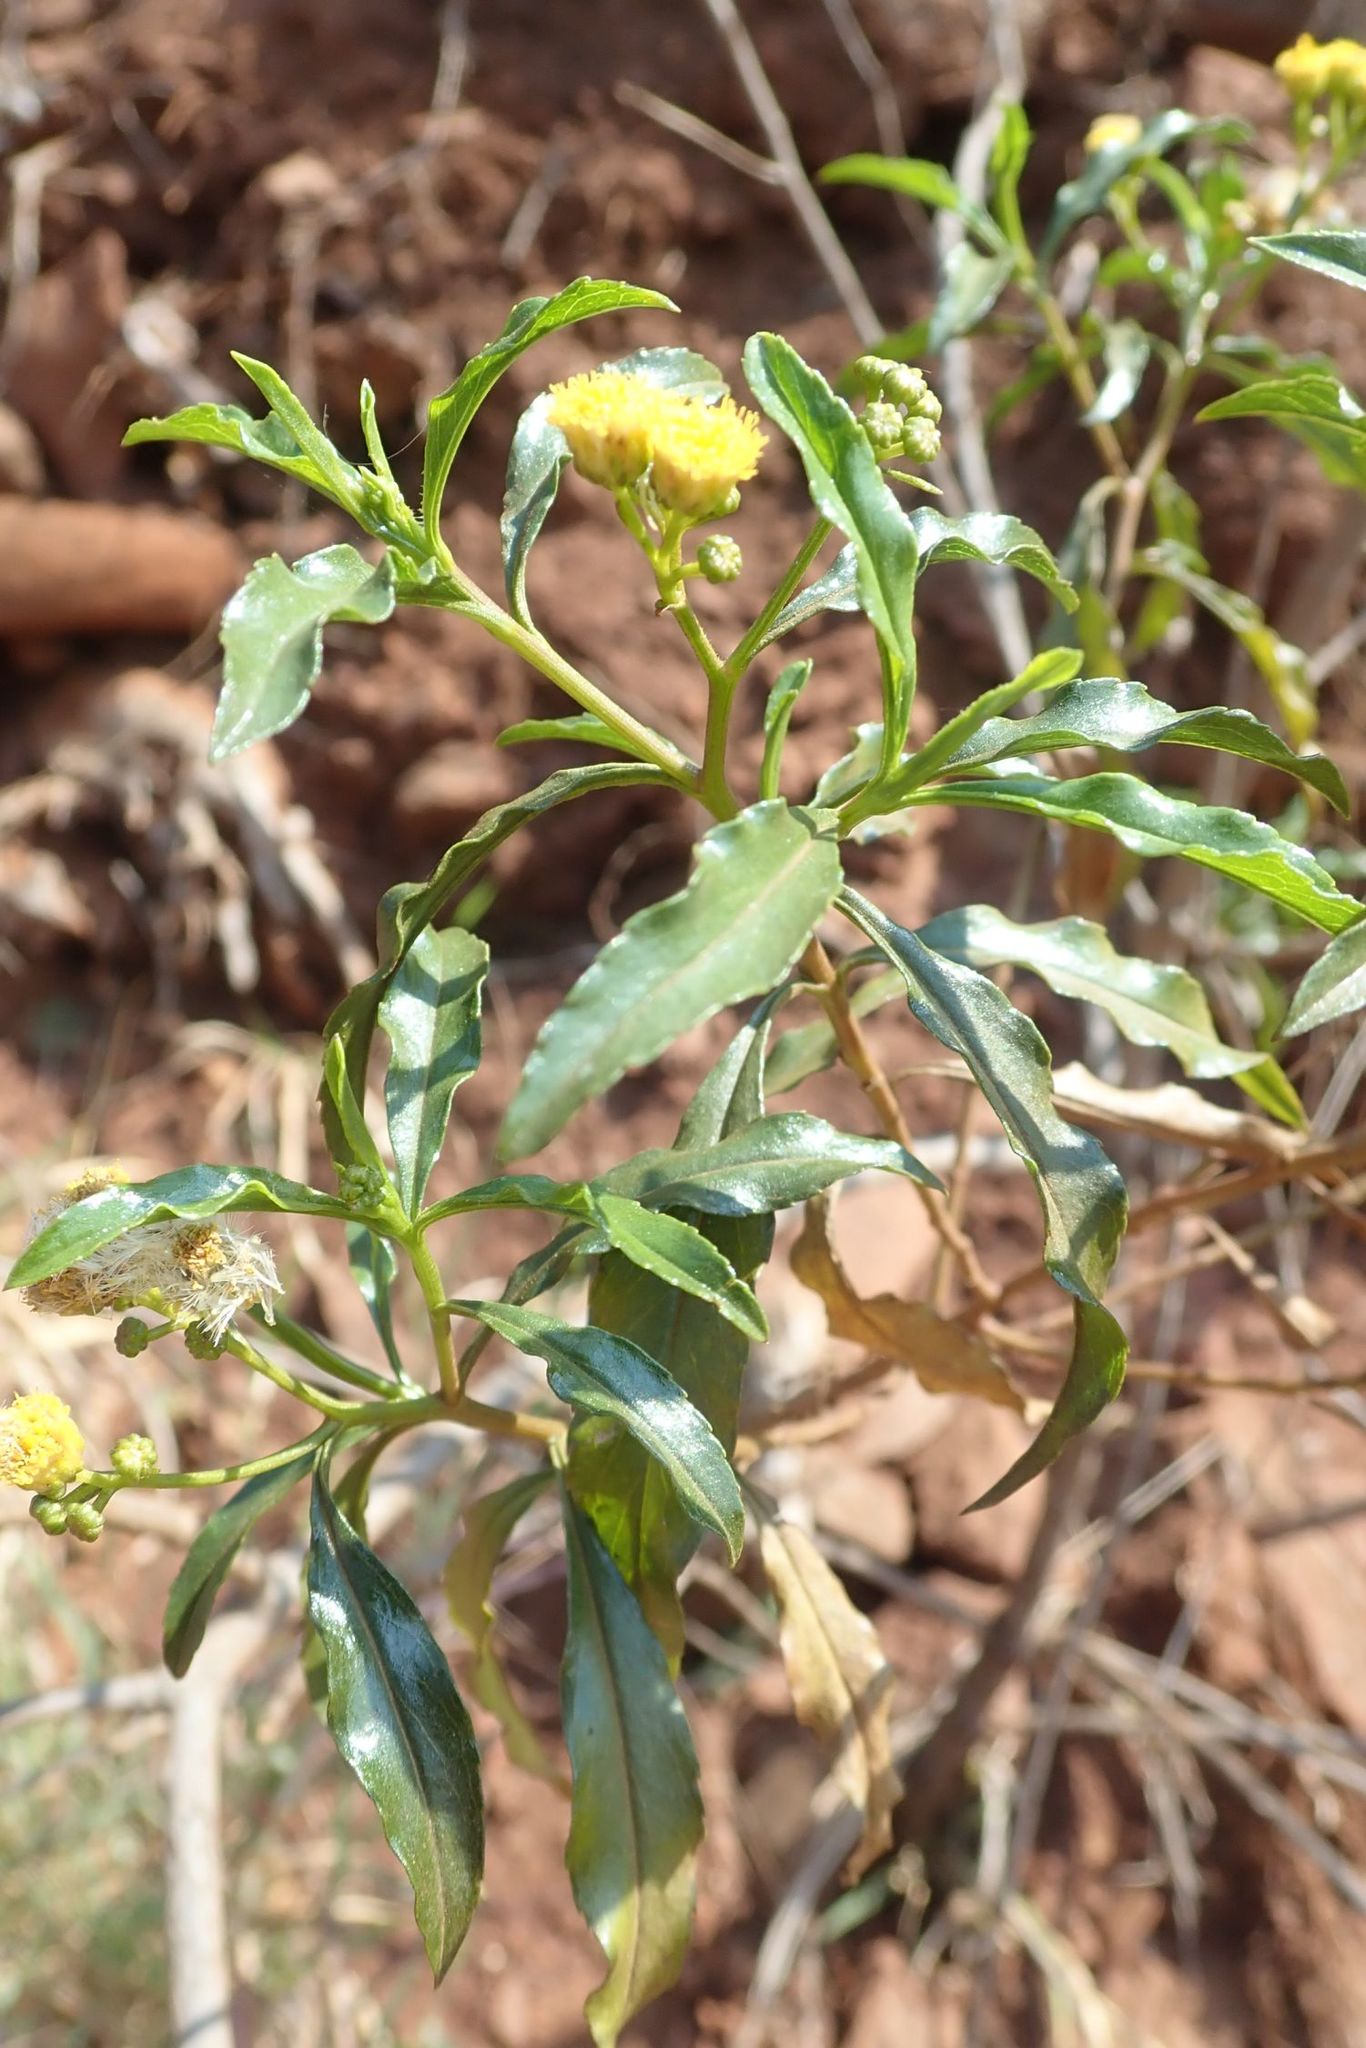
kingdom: Plantae
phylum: Tracheophyta
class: Magnoliopsida
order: Asterales
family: Asteraceae
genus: Psiadia
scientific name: Psiadia punctulata
